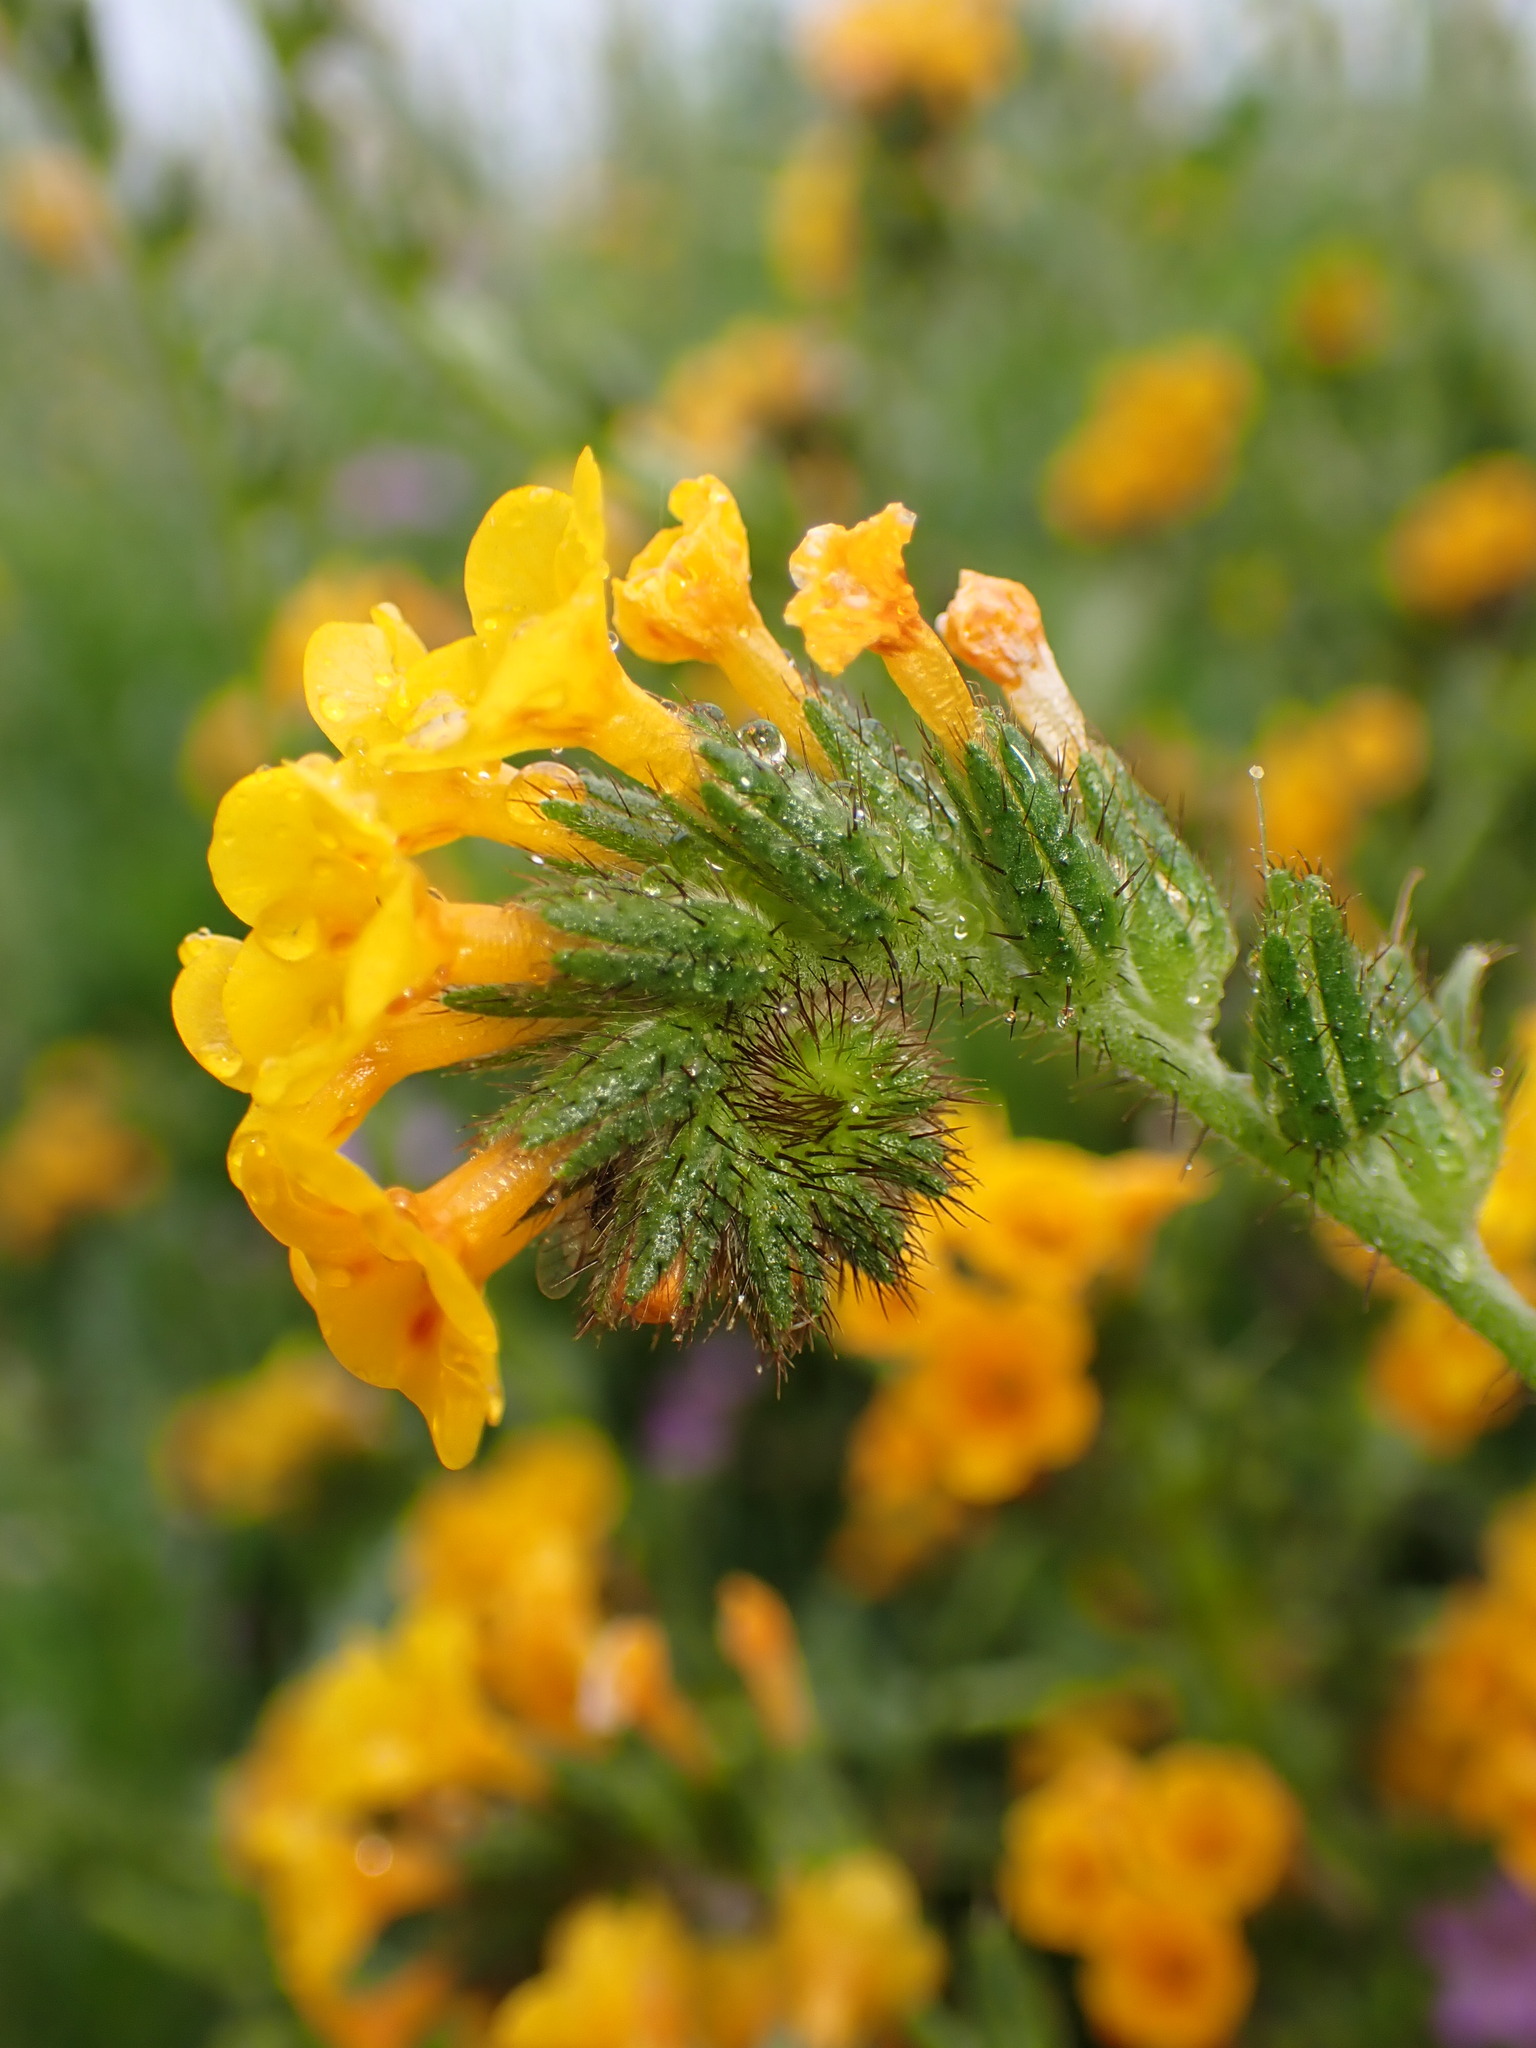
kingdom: Plantae
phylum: Tracheophyta
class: Magnoliopsida
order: Boraginales
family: Boraginaceae
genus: Amsinckia
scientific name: Amsinckia menziesii
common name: Menzies' fiddleneck
